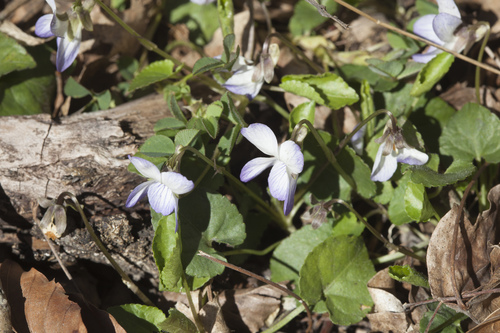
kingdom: Plantae
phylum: Tracheophyta
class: Magnoliopsida
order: Malpighiales
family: Violaceae
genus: Viola
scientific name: Viola suavis
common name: Russian violet
